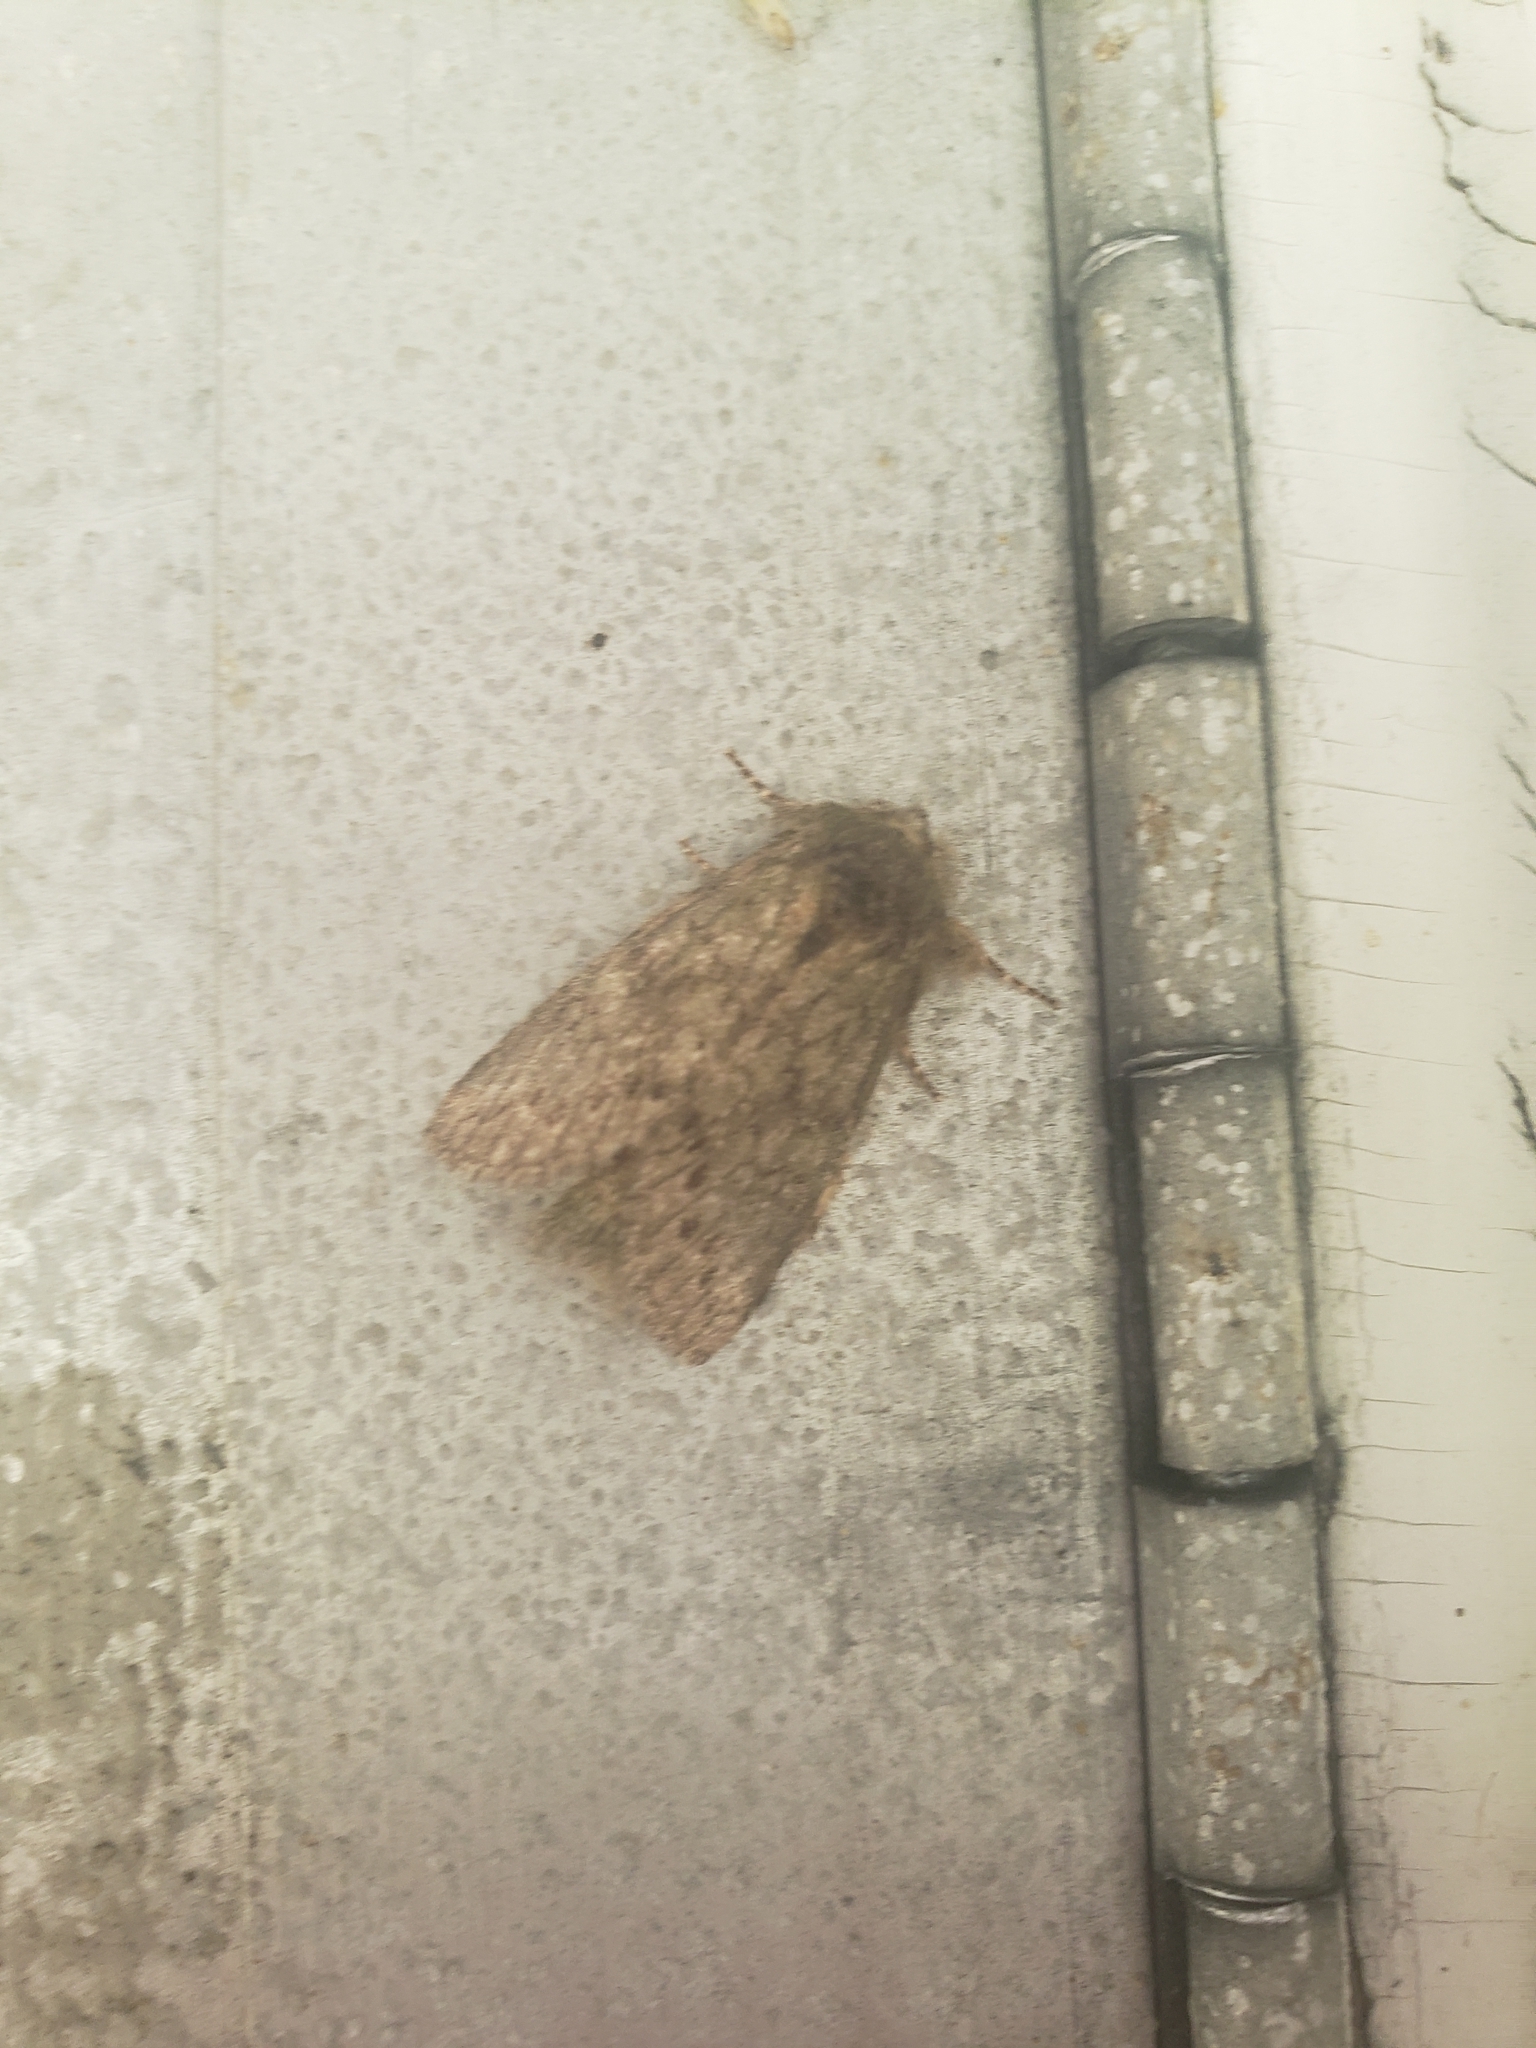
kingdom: Animalia
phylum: Arthropoda
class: Insecta
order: Lepidoptera
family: Notodontidae
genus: Disphragis
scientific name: Disphragis Cecrita guttivitta
